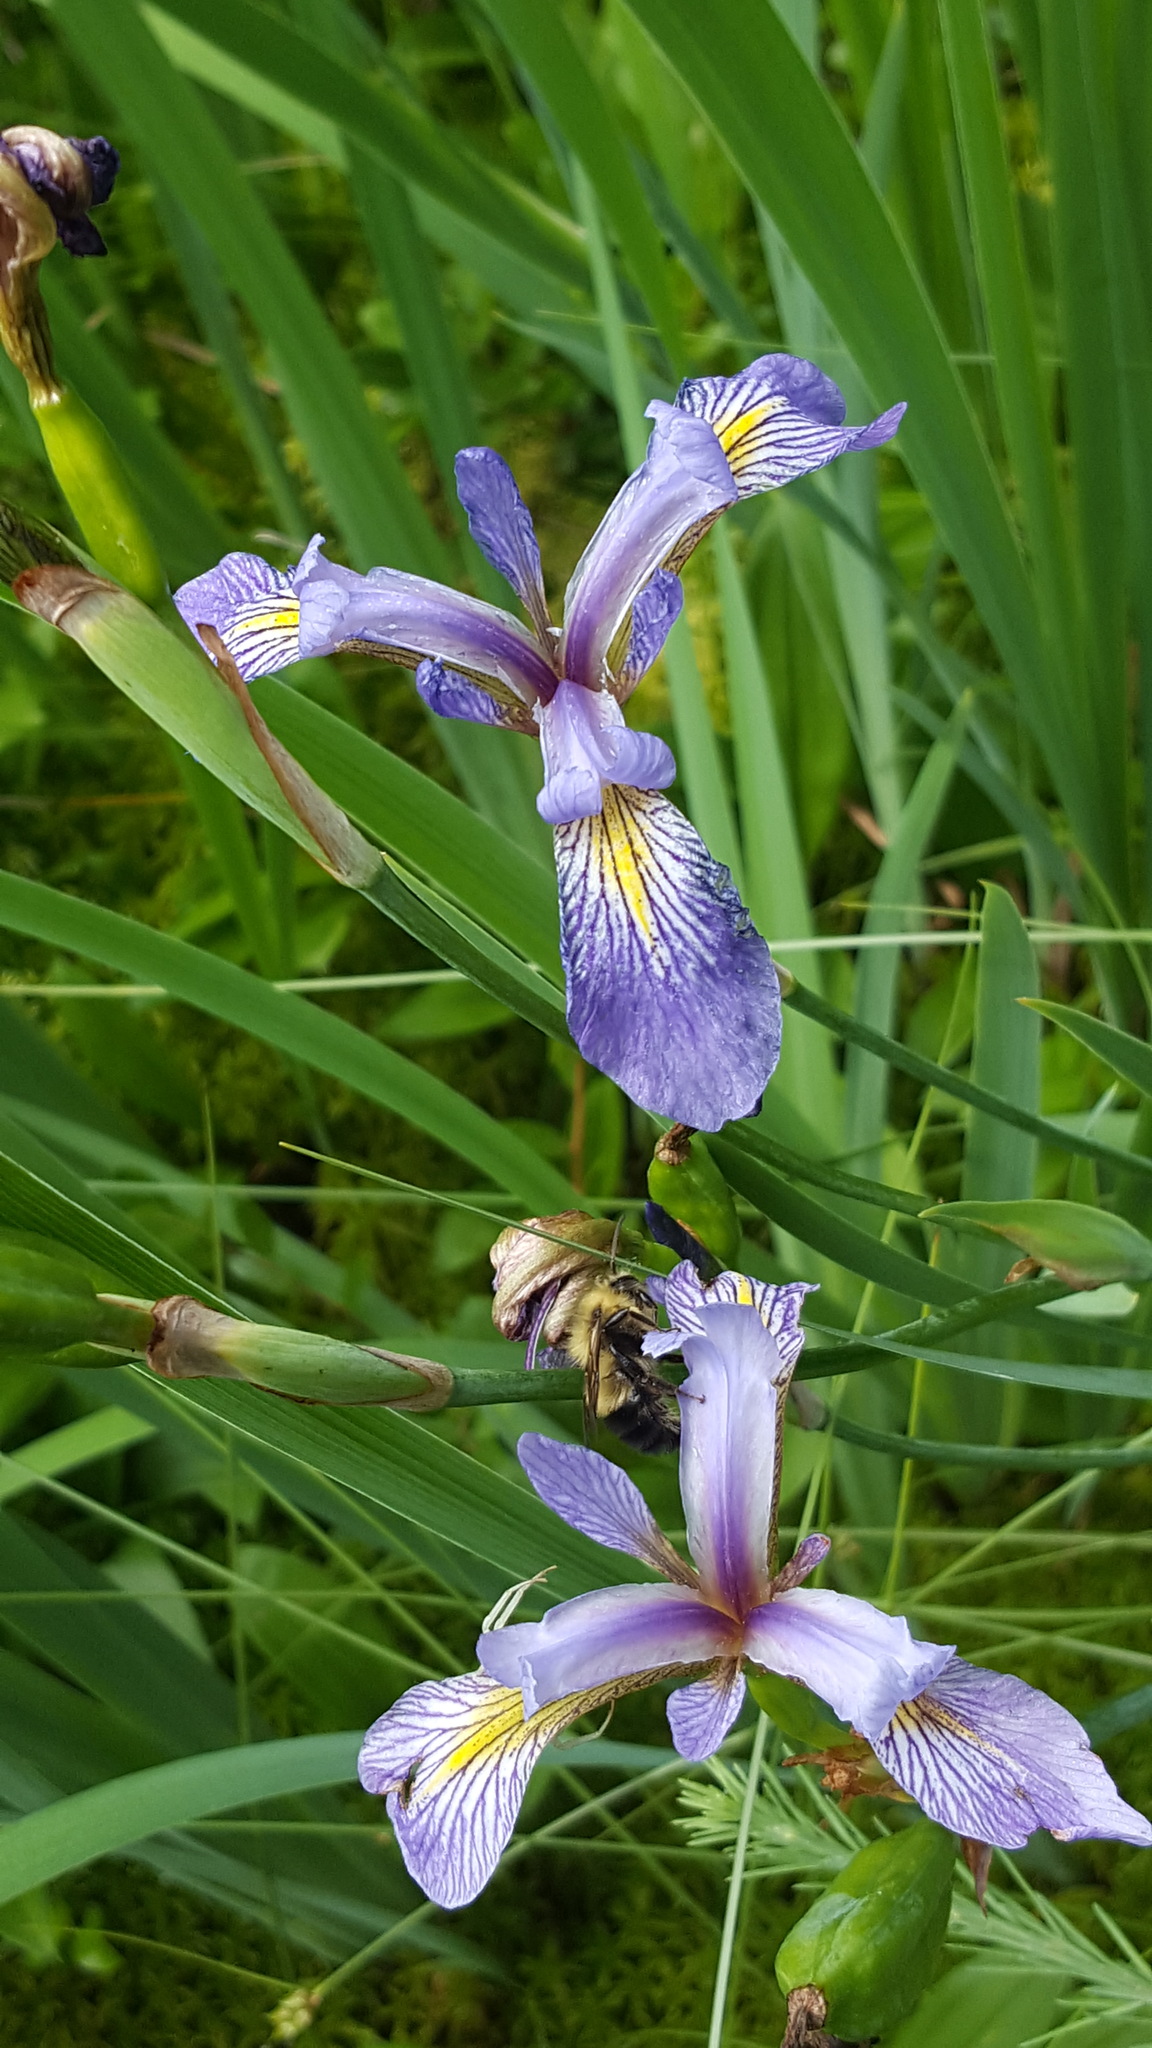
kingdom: Plantae
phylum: Tracheophyta
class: Liliopsida
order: Asparagales
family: Iridaceae
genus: Iris
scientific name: Iris versicolor
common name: Purple iris
